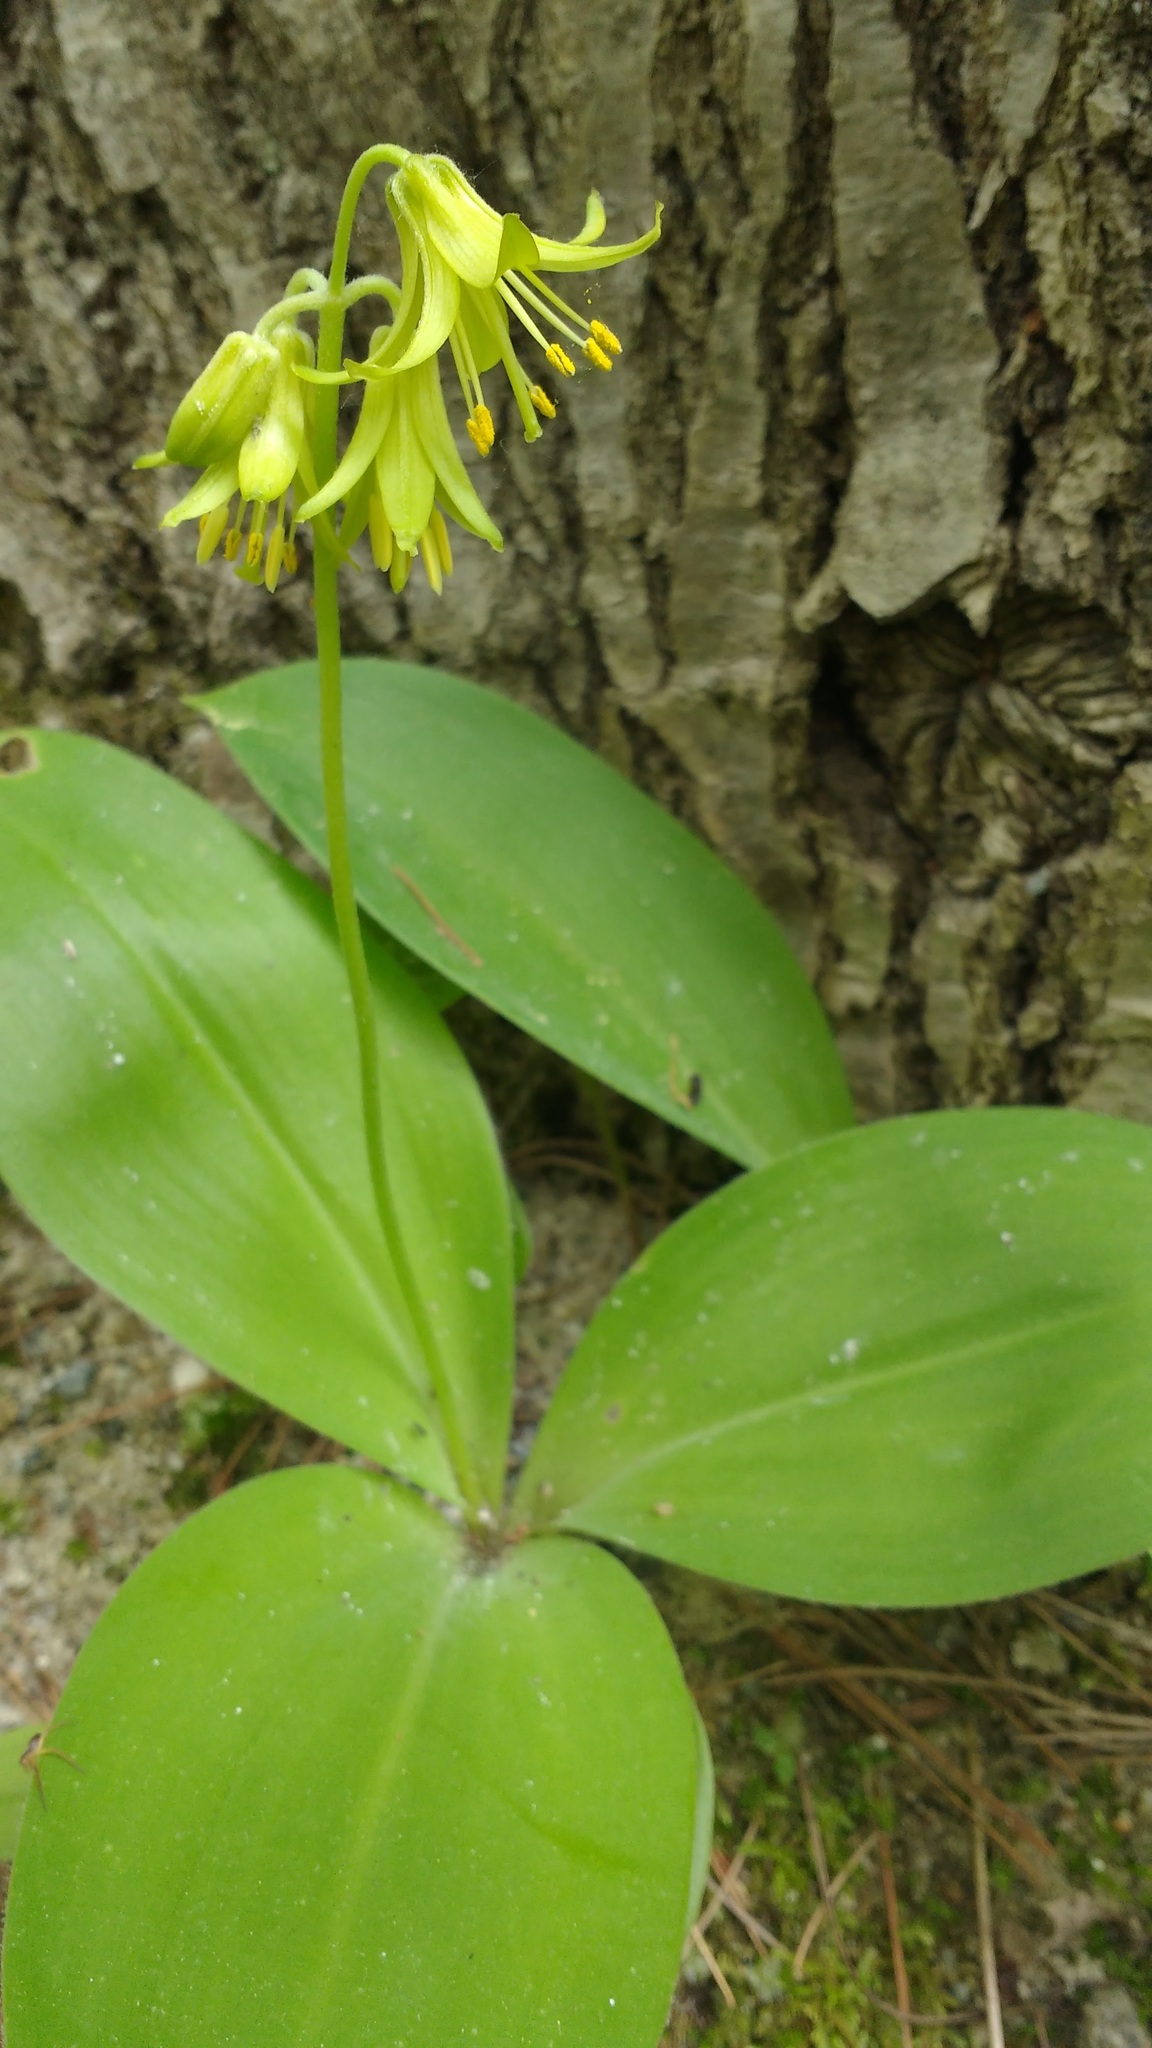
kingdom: Plantae
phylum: Tracheophyta
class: Liliopsida
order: Liliales
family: Liliaceae
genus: Clintonia
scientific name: Clintonia borealis
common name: Yellow clintonia
